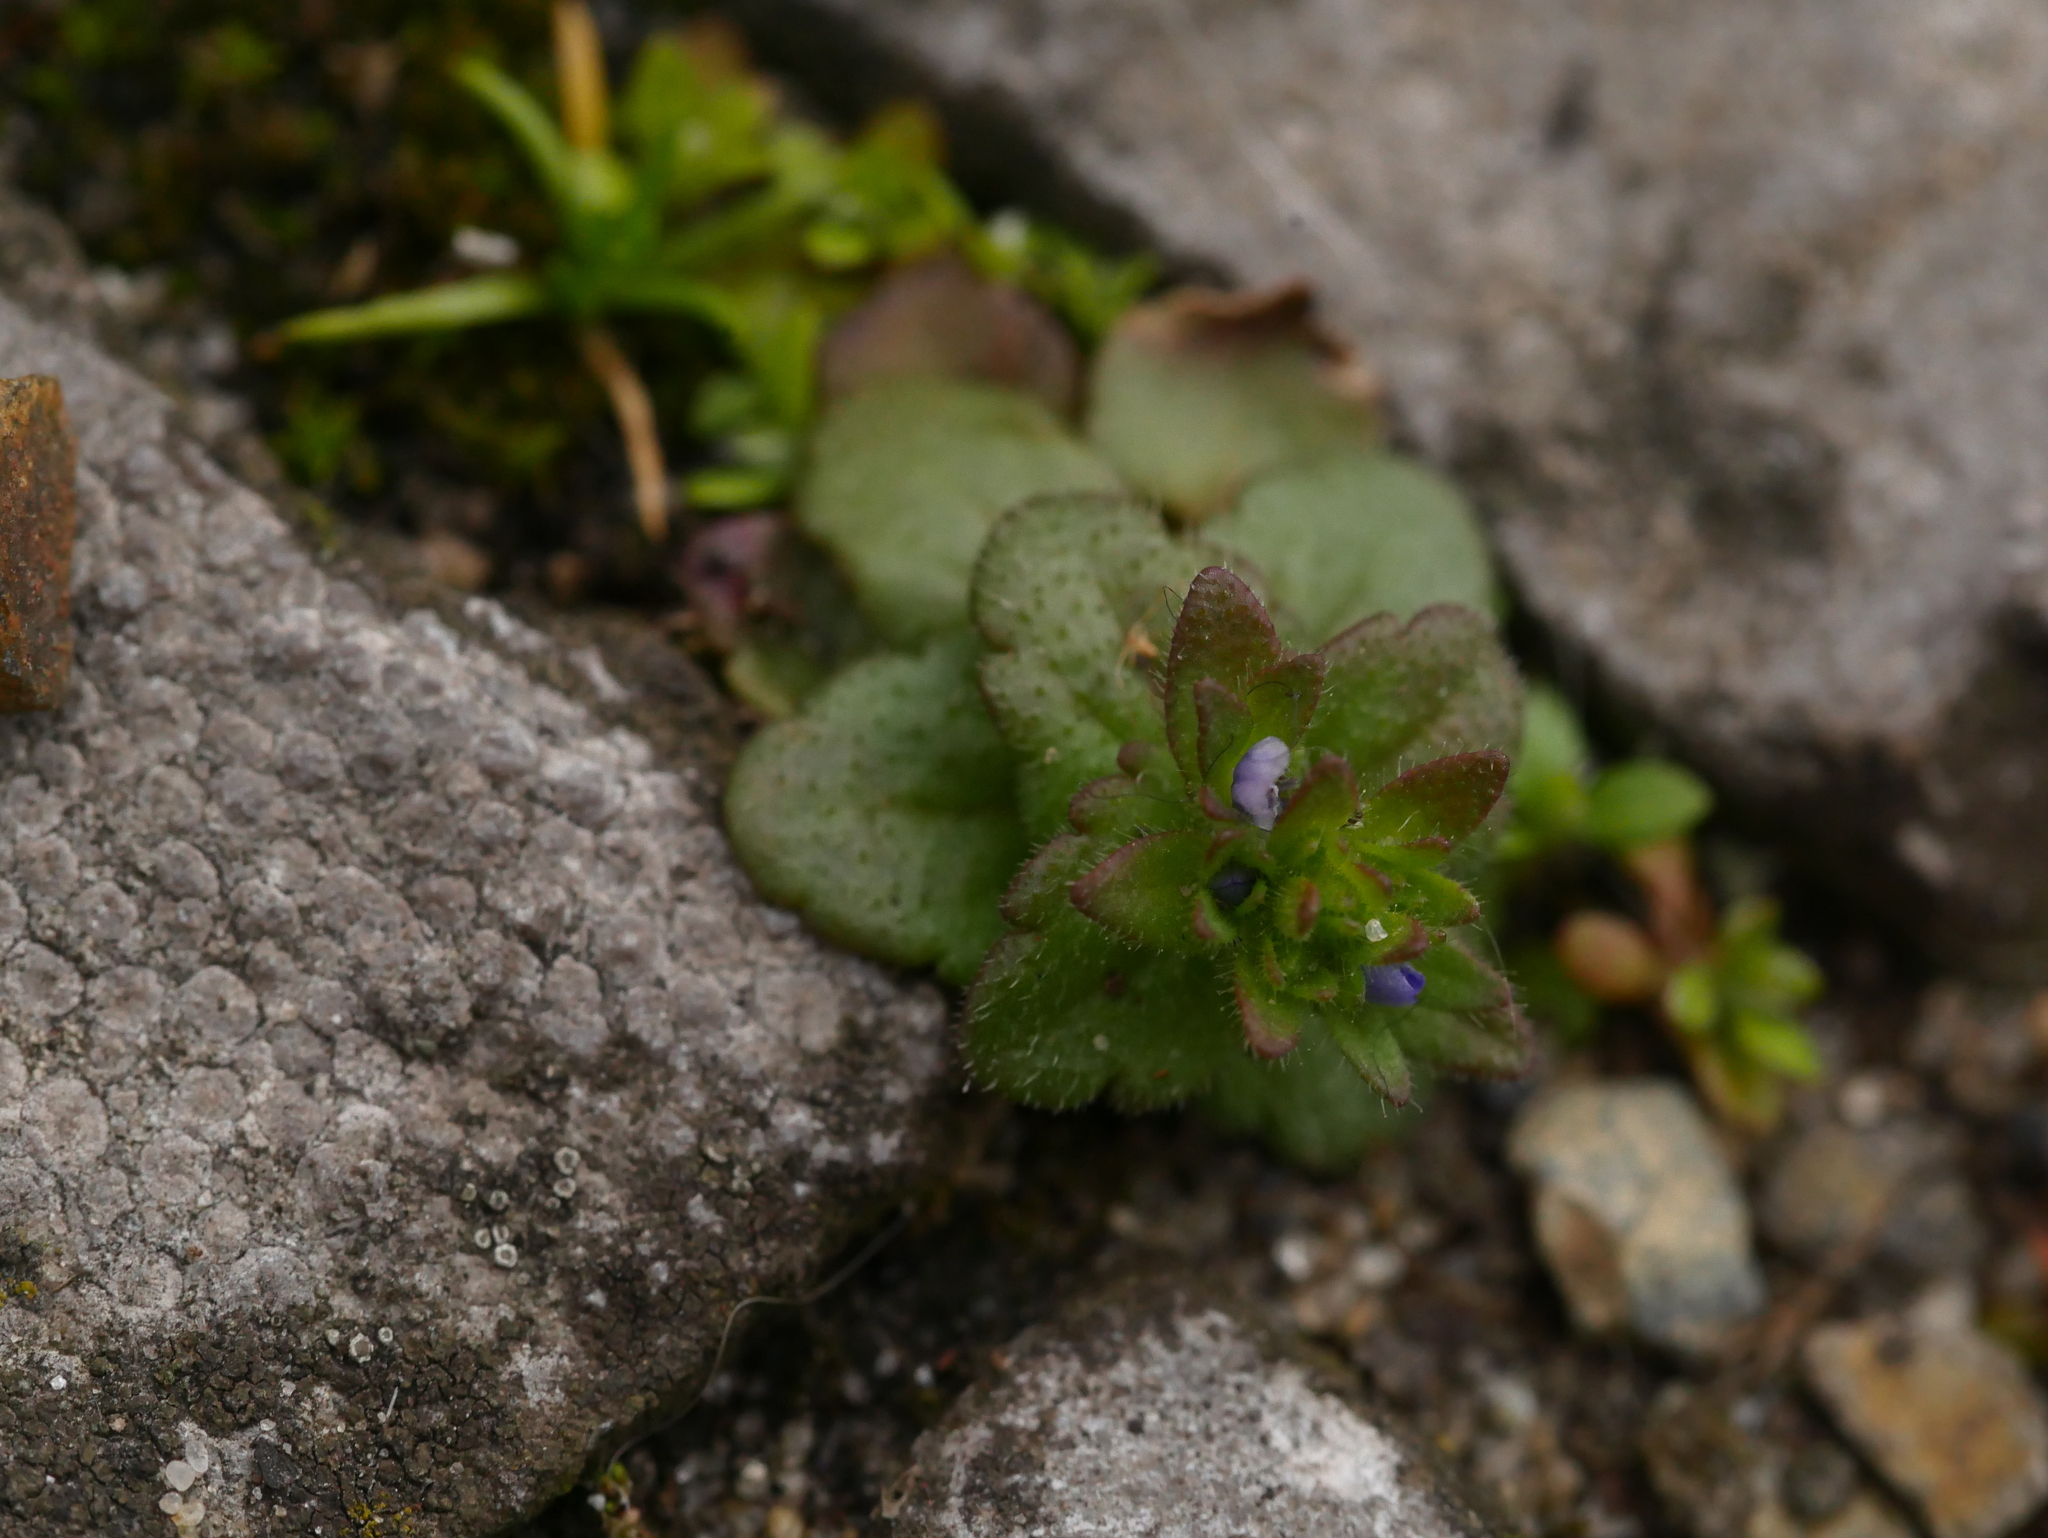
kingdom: Plantae
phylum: Tracheophyta
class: Magnoliopsida
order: Lamiales
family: Plantaginaceae
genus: Veronica
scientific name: Veronica arvensis
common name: Corn speedwell
